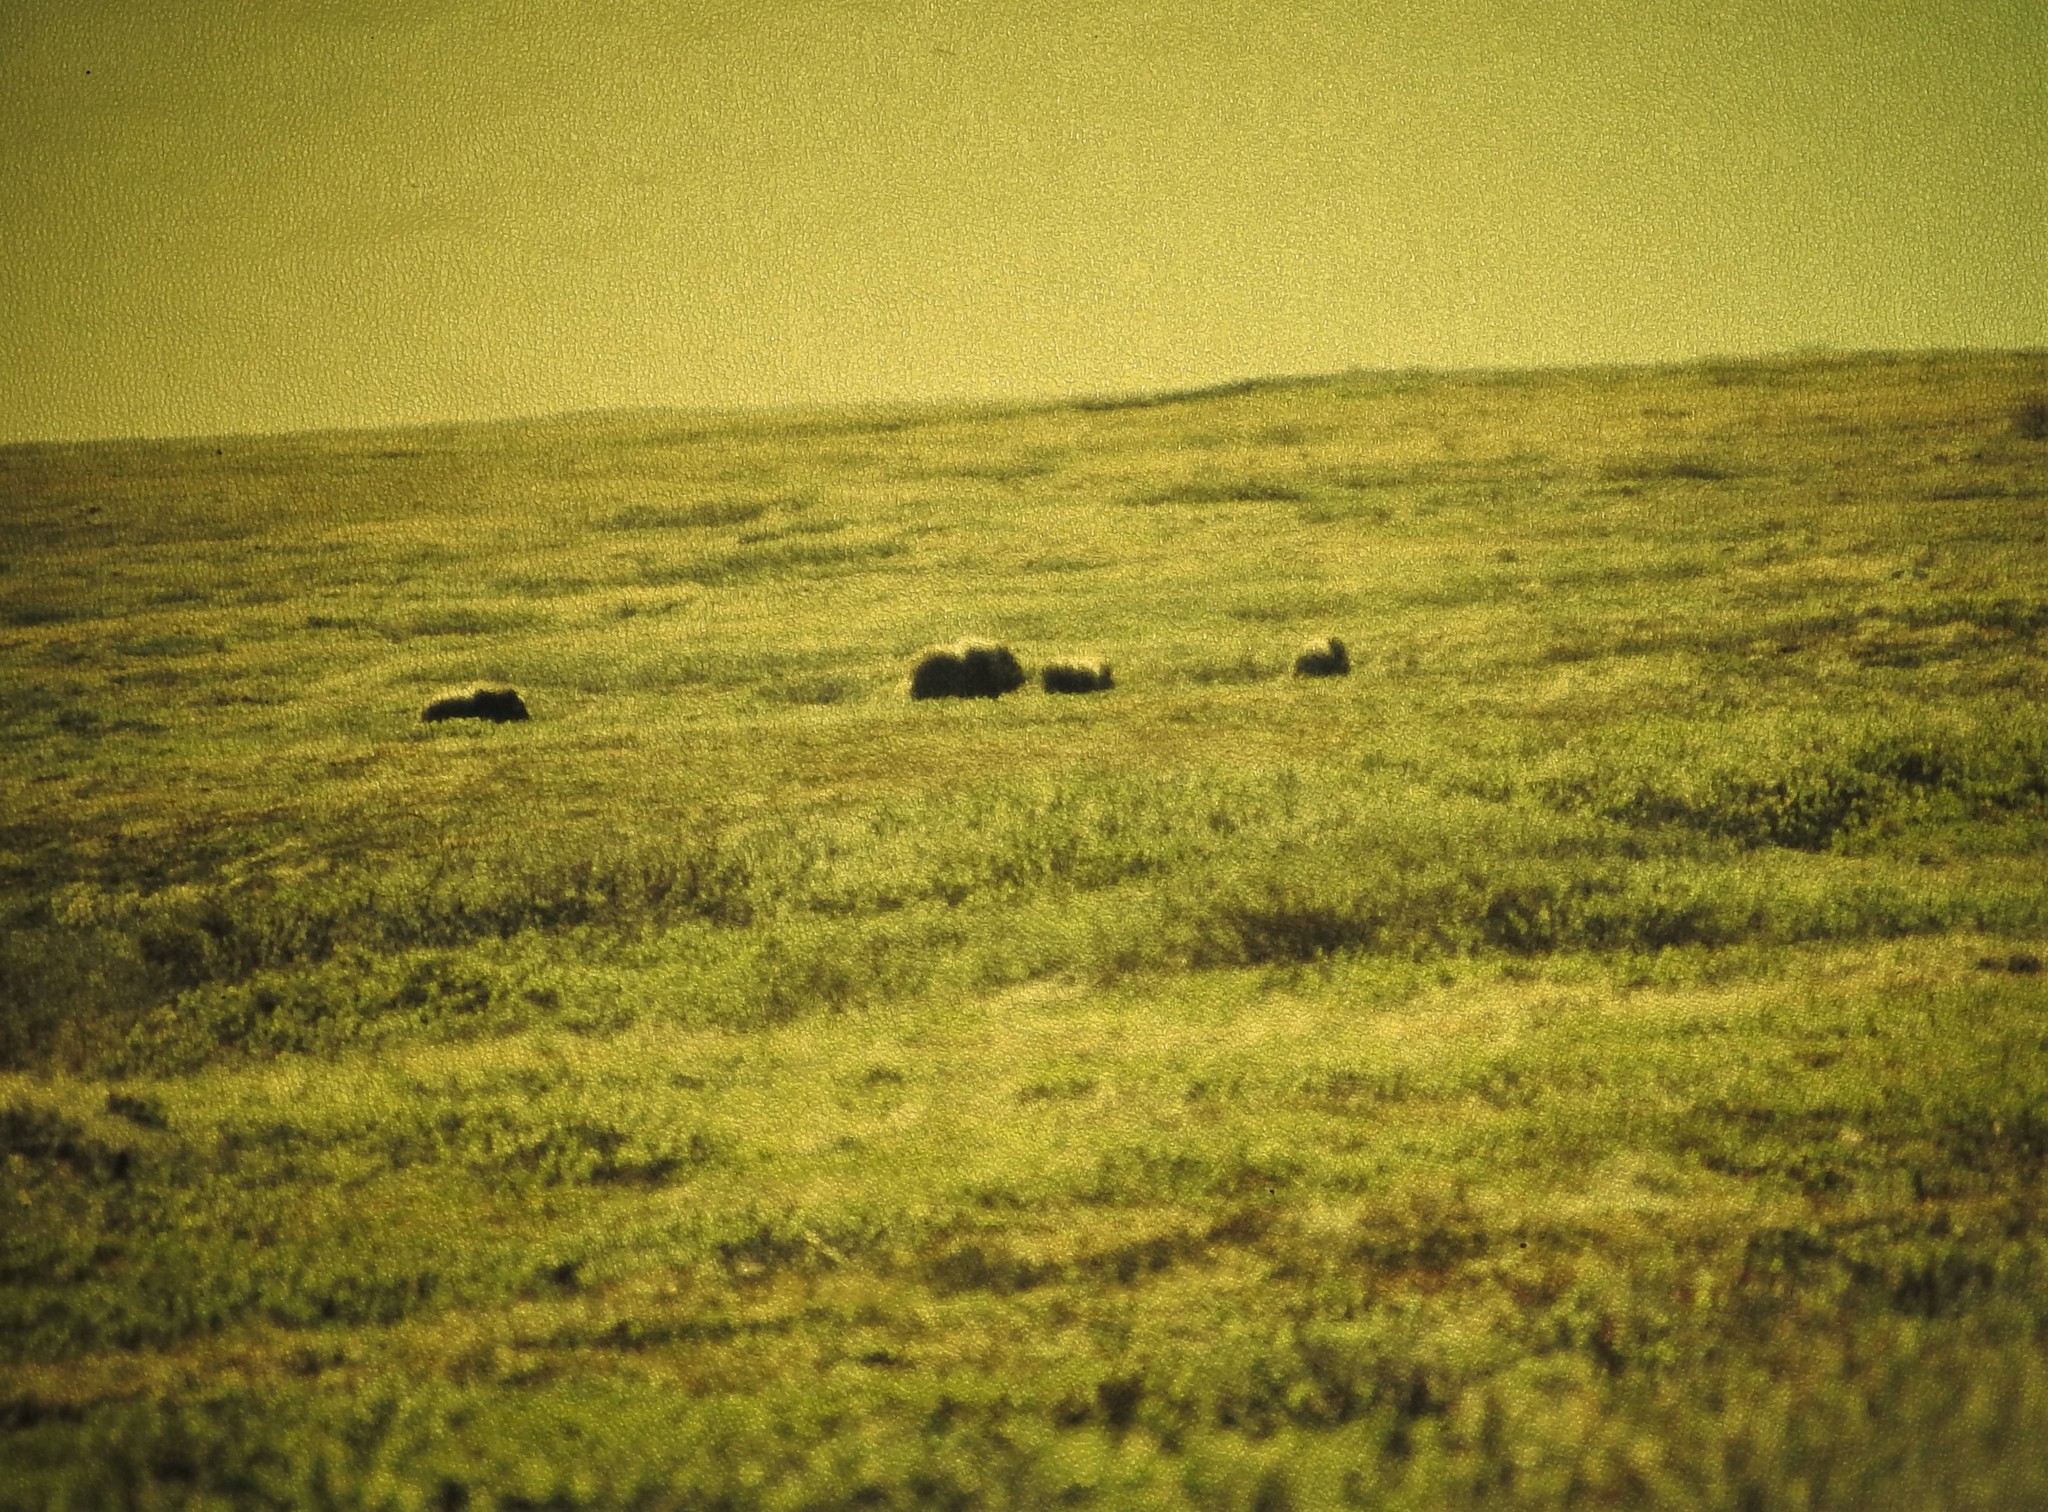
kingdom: Animalia
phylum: Chordata
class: Mammalia
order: Artiodactyla
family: Bovidae
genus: Ovibos
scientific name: Ovibos moschatus
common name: Muskox
